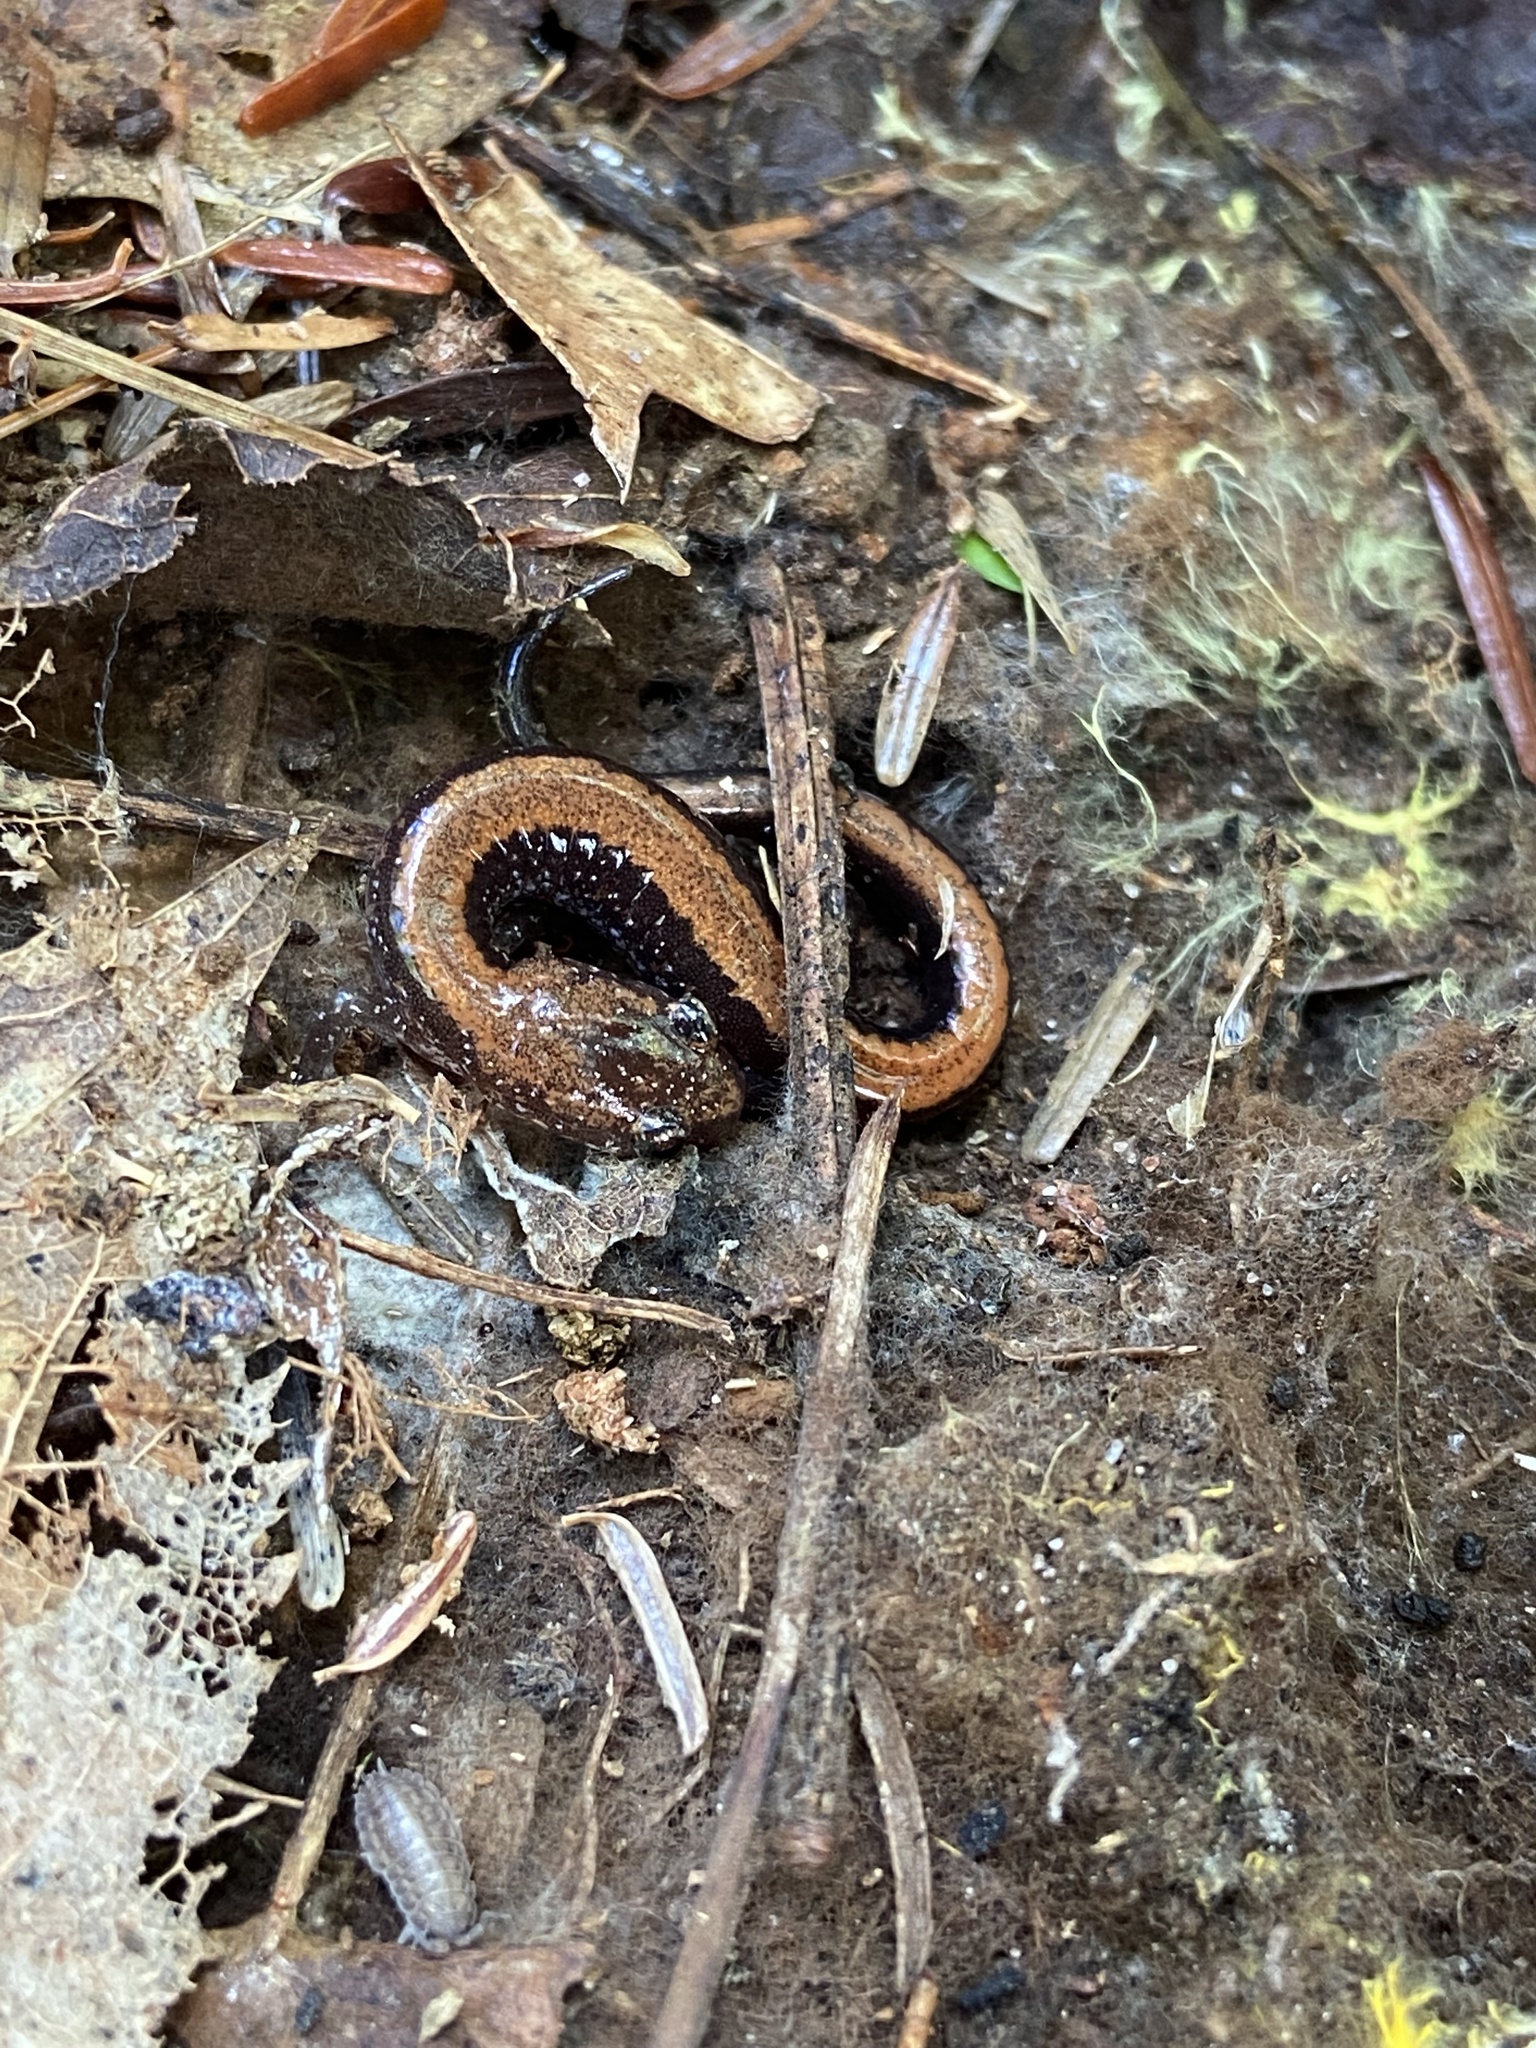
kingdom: Animalia
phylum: Chordata
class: Amphibia
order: Caudata
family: Plethodontidae
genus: Plethodon
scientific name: Plethodon cinereus
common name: Redback salamander
